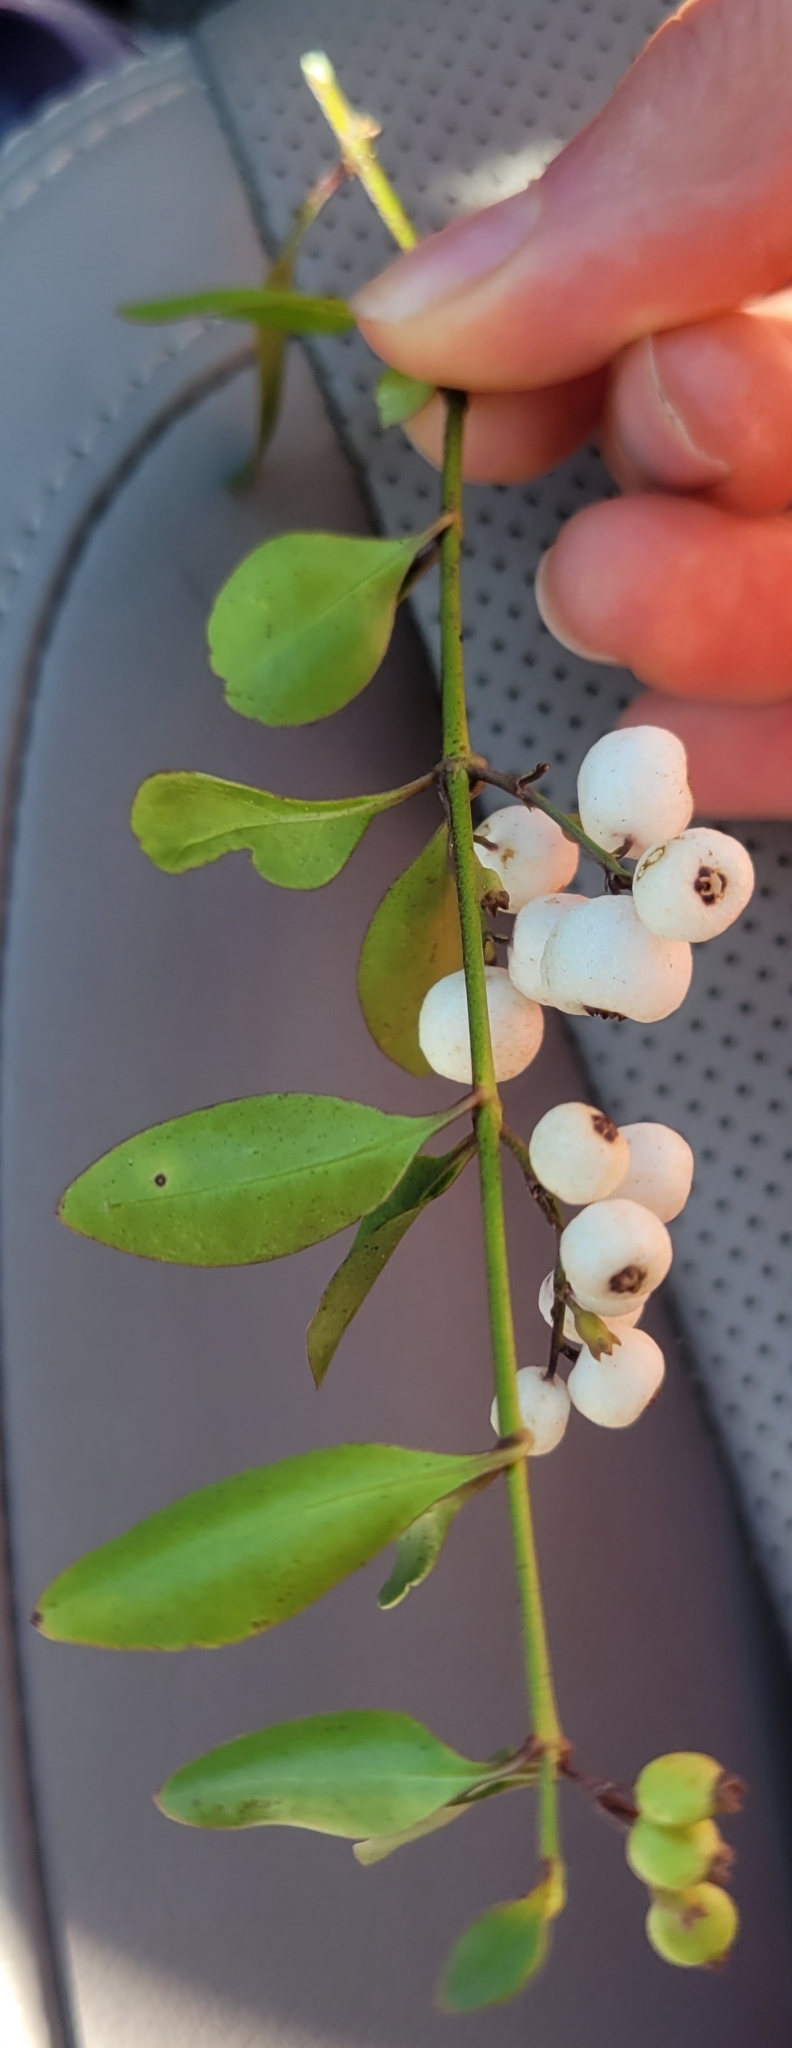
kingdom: Plantae
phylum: Tracheophyta
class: Magnoliopsida
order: Gentianales
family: Rubiaceae
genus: Chiococca
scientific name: Chiococca alba
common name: Snowberry
